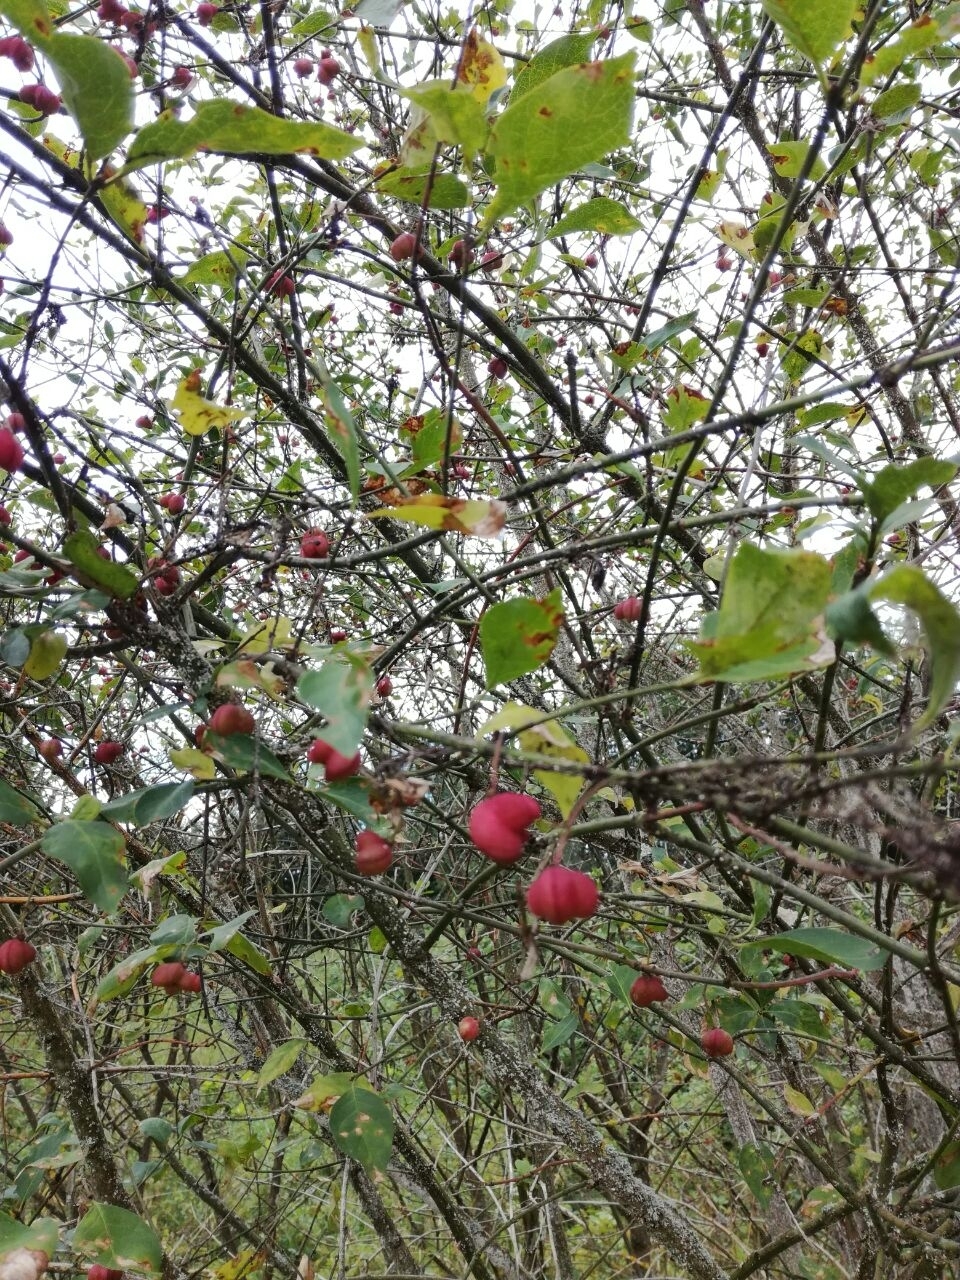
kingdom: Plantae
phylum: Tracheophyta
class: Magnoliopsida
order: Celastrales
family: Celastraceae
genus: Euonymus
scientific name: Euonymus europaeus
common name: Spindle
